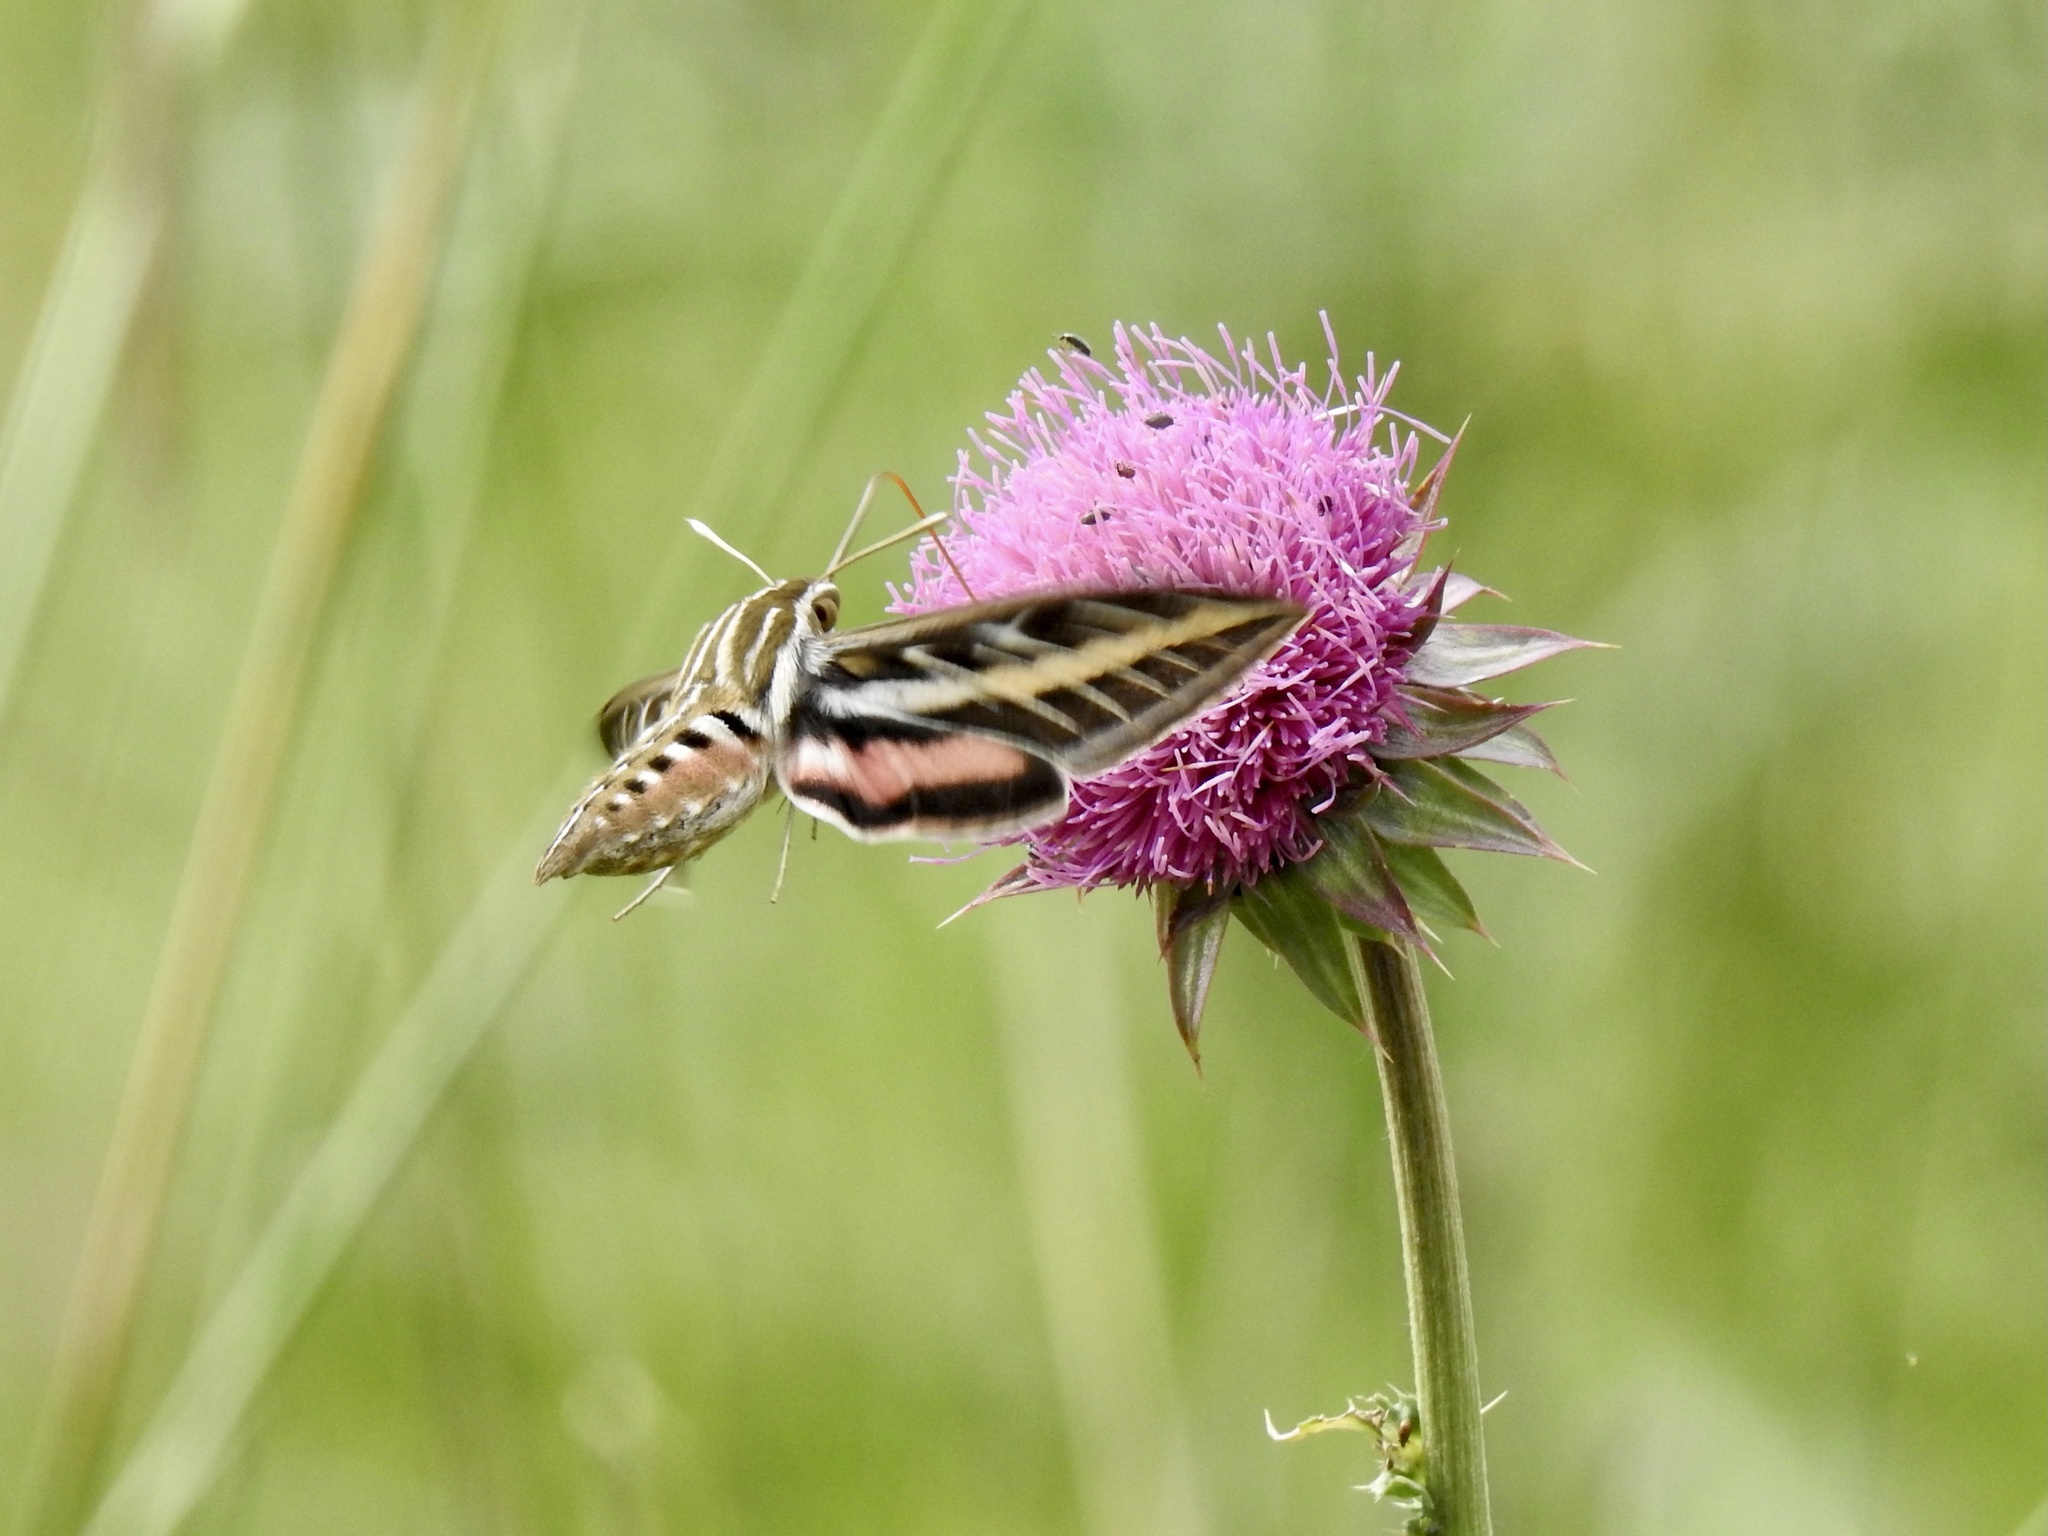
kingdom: Animalia
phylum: Arthropoda
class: Insecta
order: Lepidoptera
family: Sphingidae
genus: Hyles
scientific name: Hyles lineata
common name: White-lined sphinx
